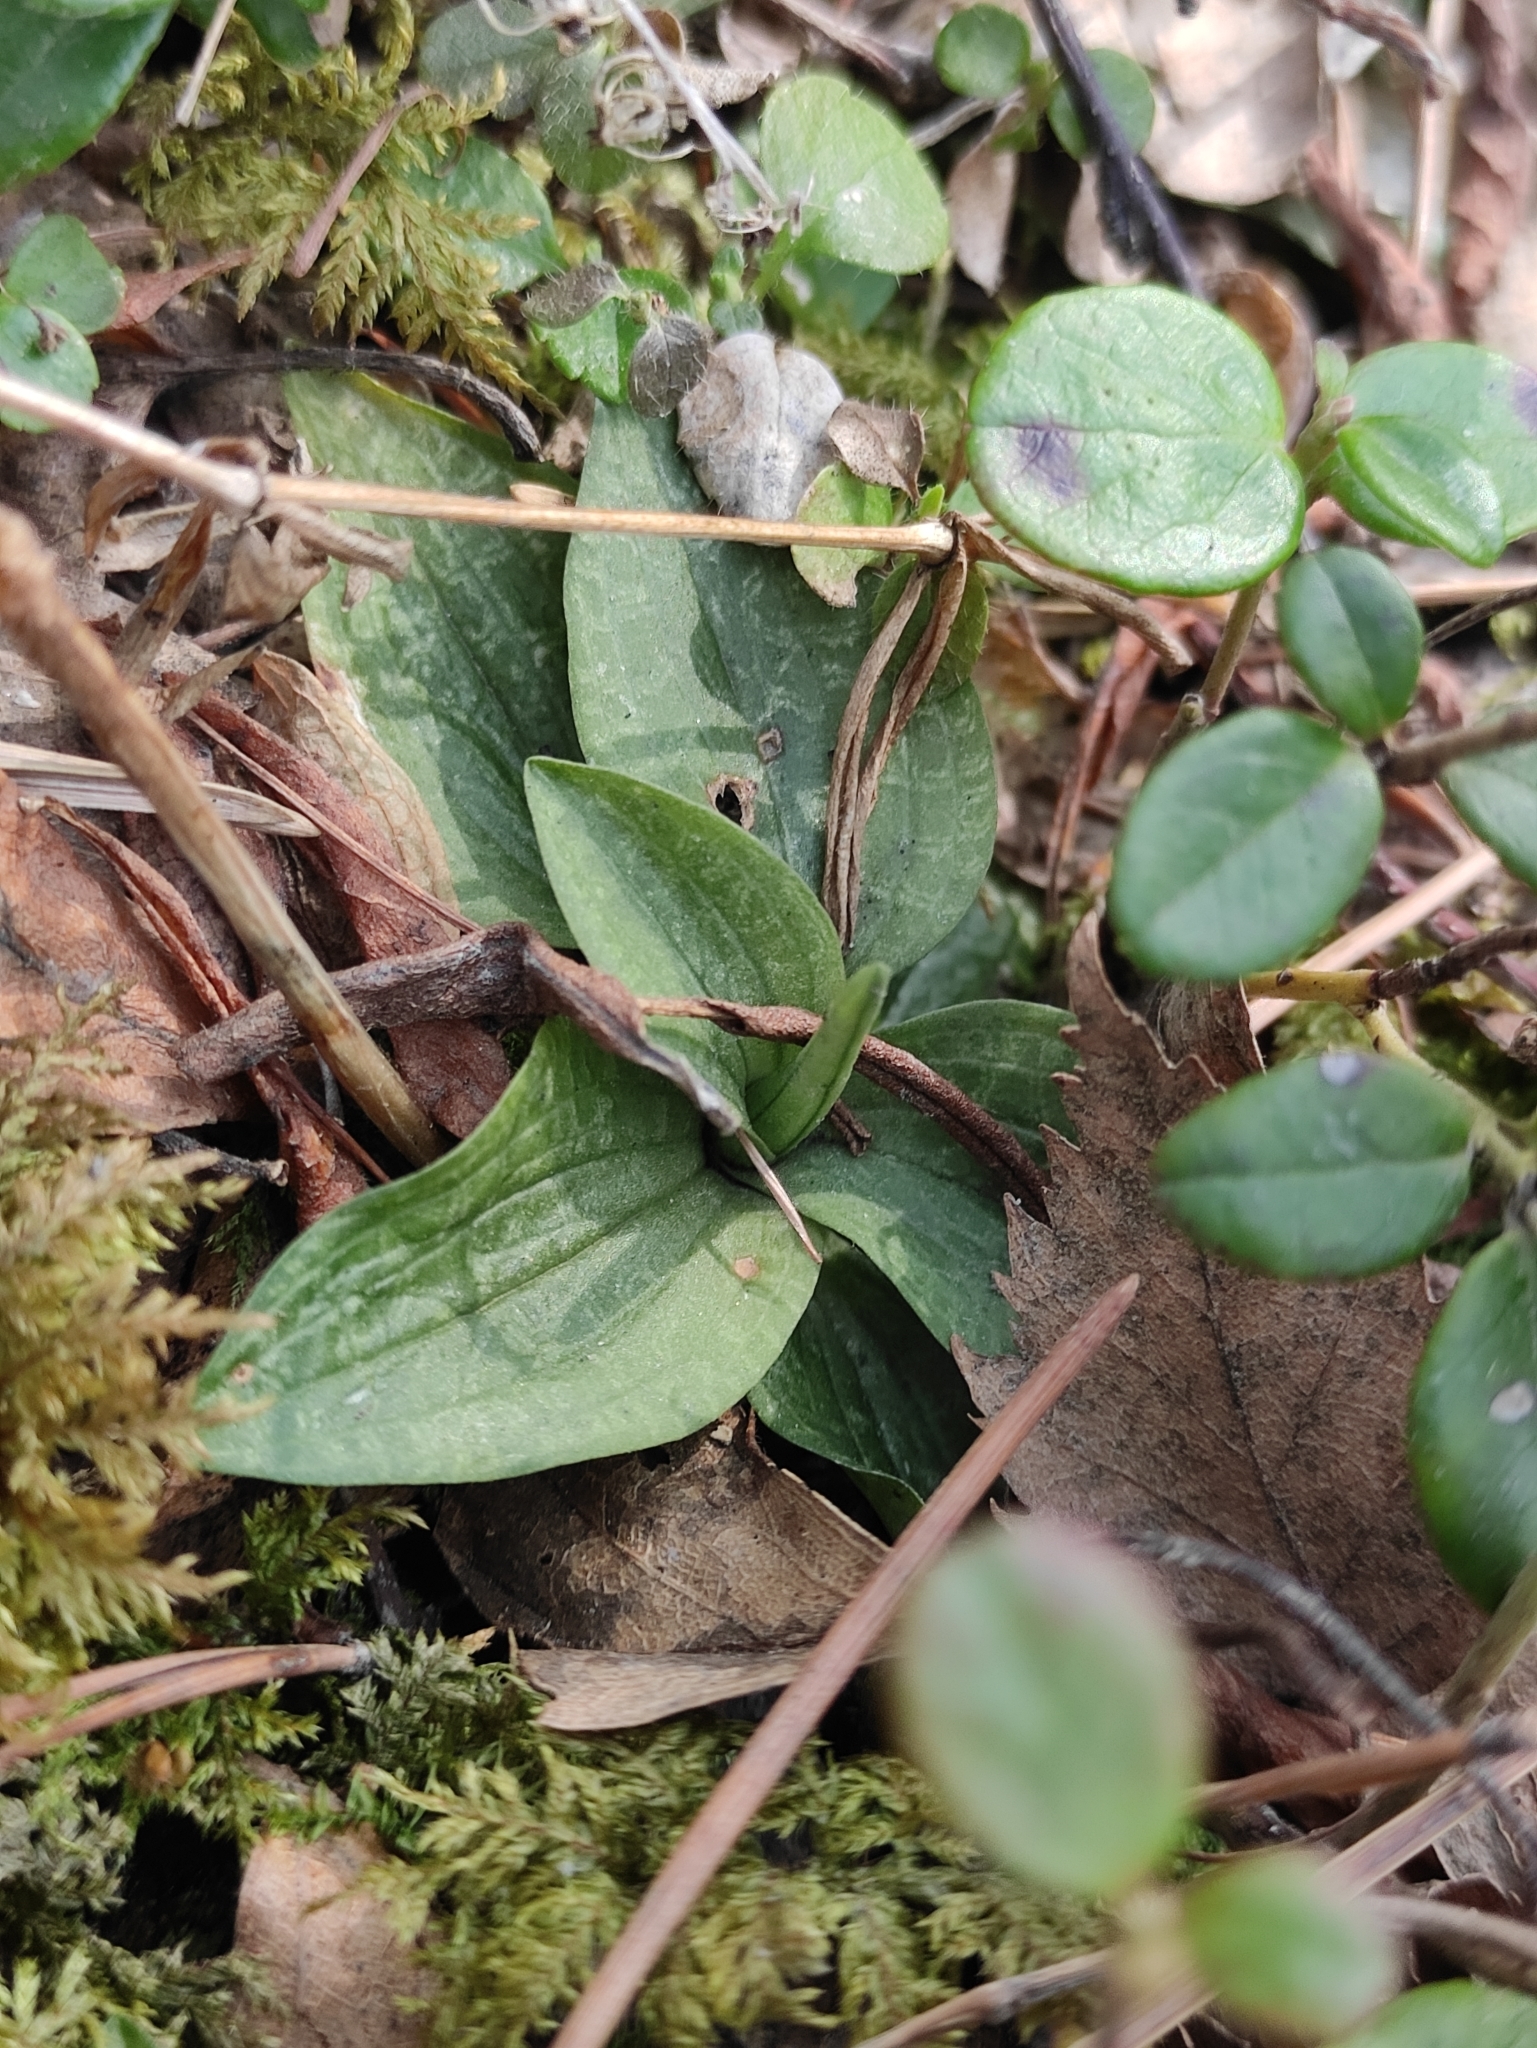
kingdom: Plantae
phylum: Tracheophyta
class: Liliopsida
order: Asparagales
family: Orchidaceae
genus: Goodyera
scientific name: Goodyera repens
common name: Creeping lady's-tresses
